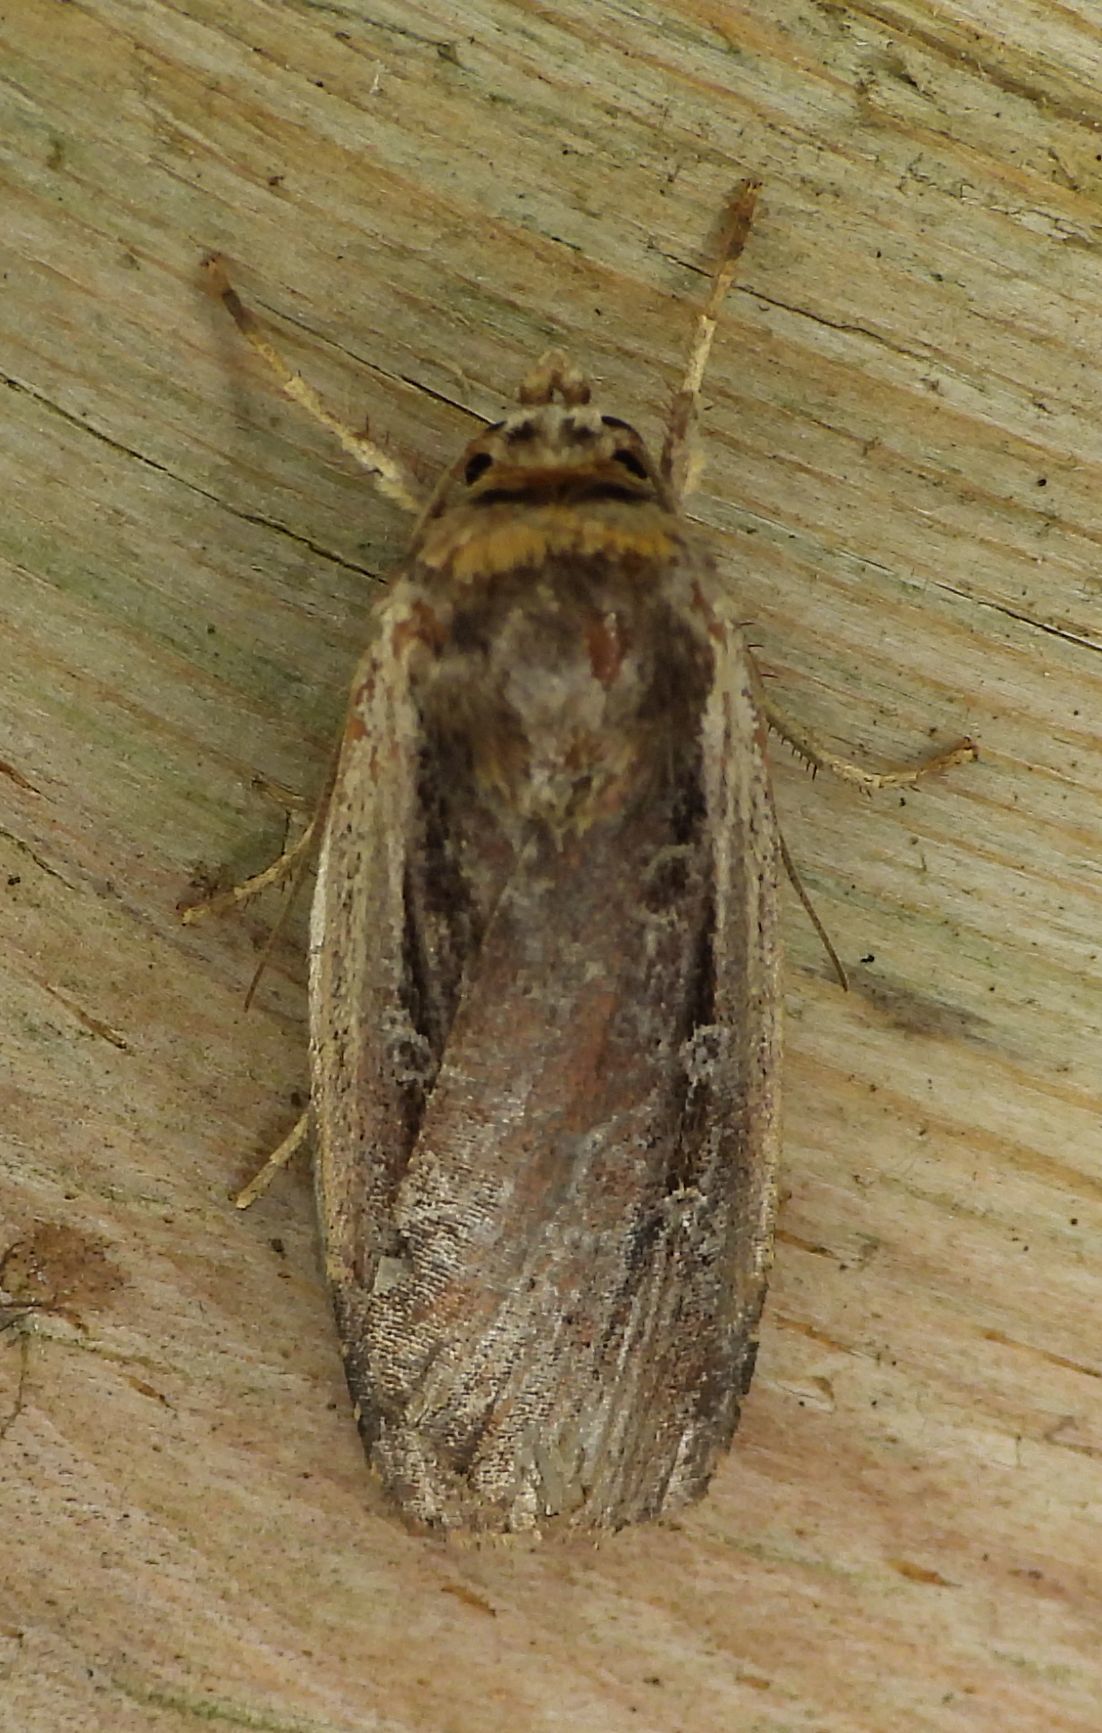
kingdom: Animalia
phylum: Arthropoda
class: Insecta
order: Lepidoptera
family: Noctuidae
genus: Ochropleura
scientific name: Ochropleura implecta
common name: Flame-shouldered dart
